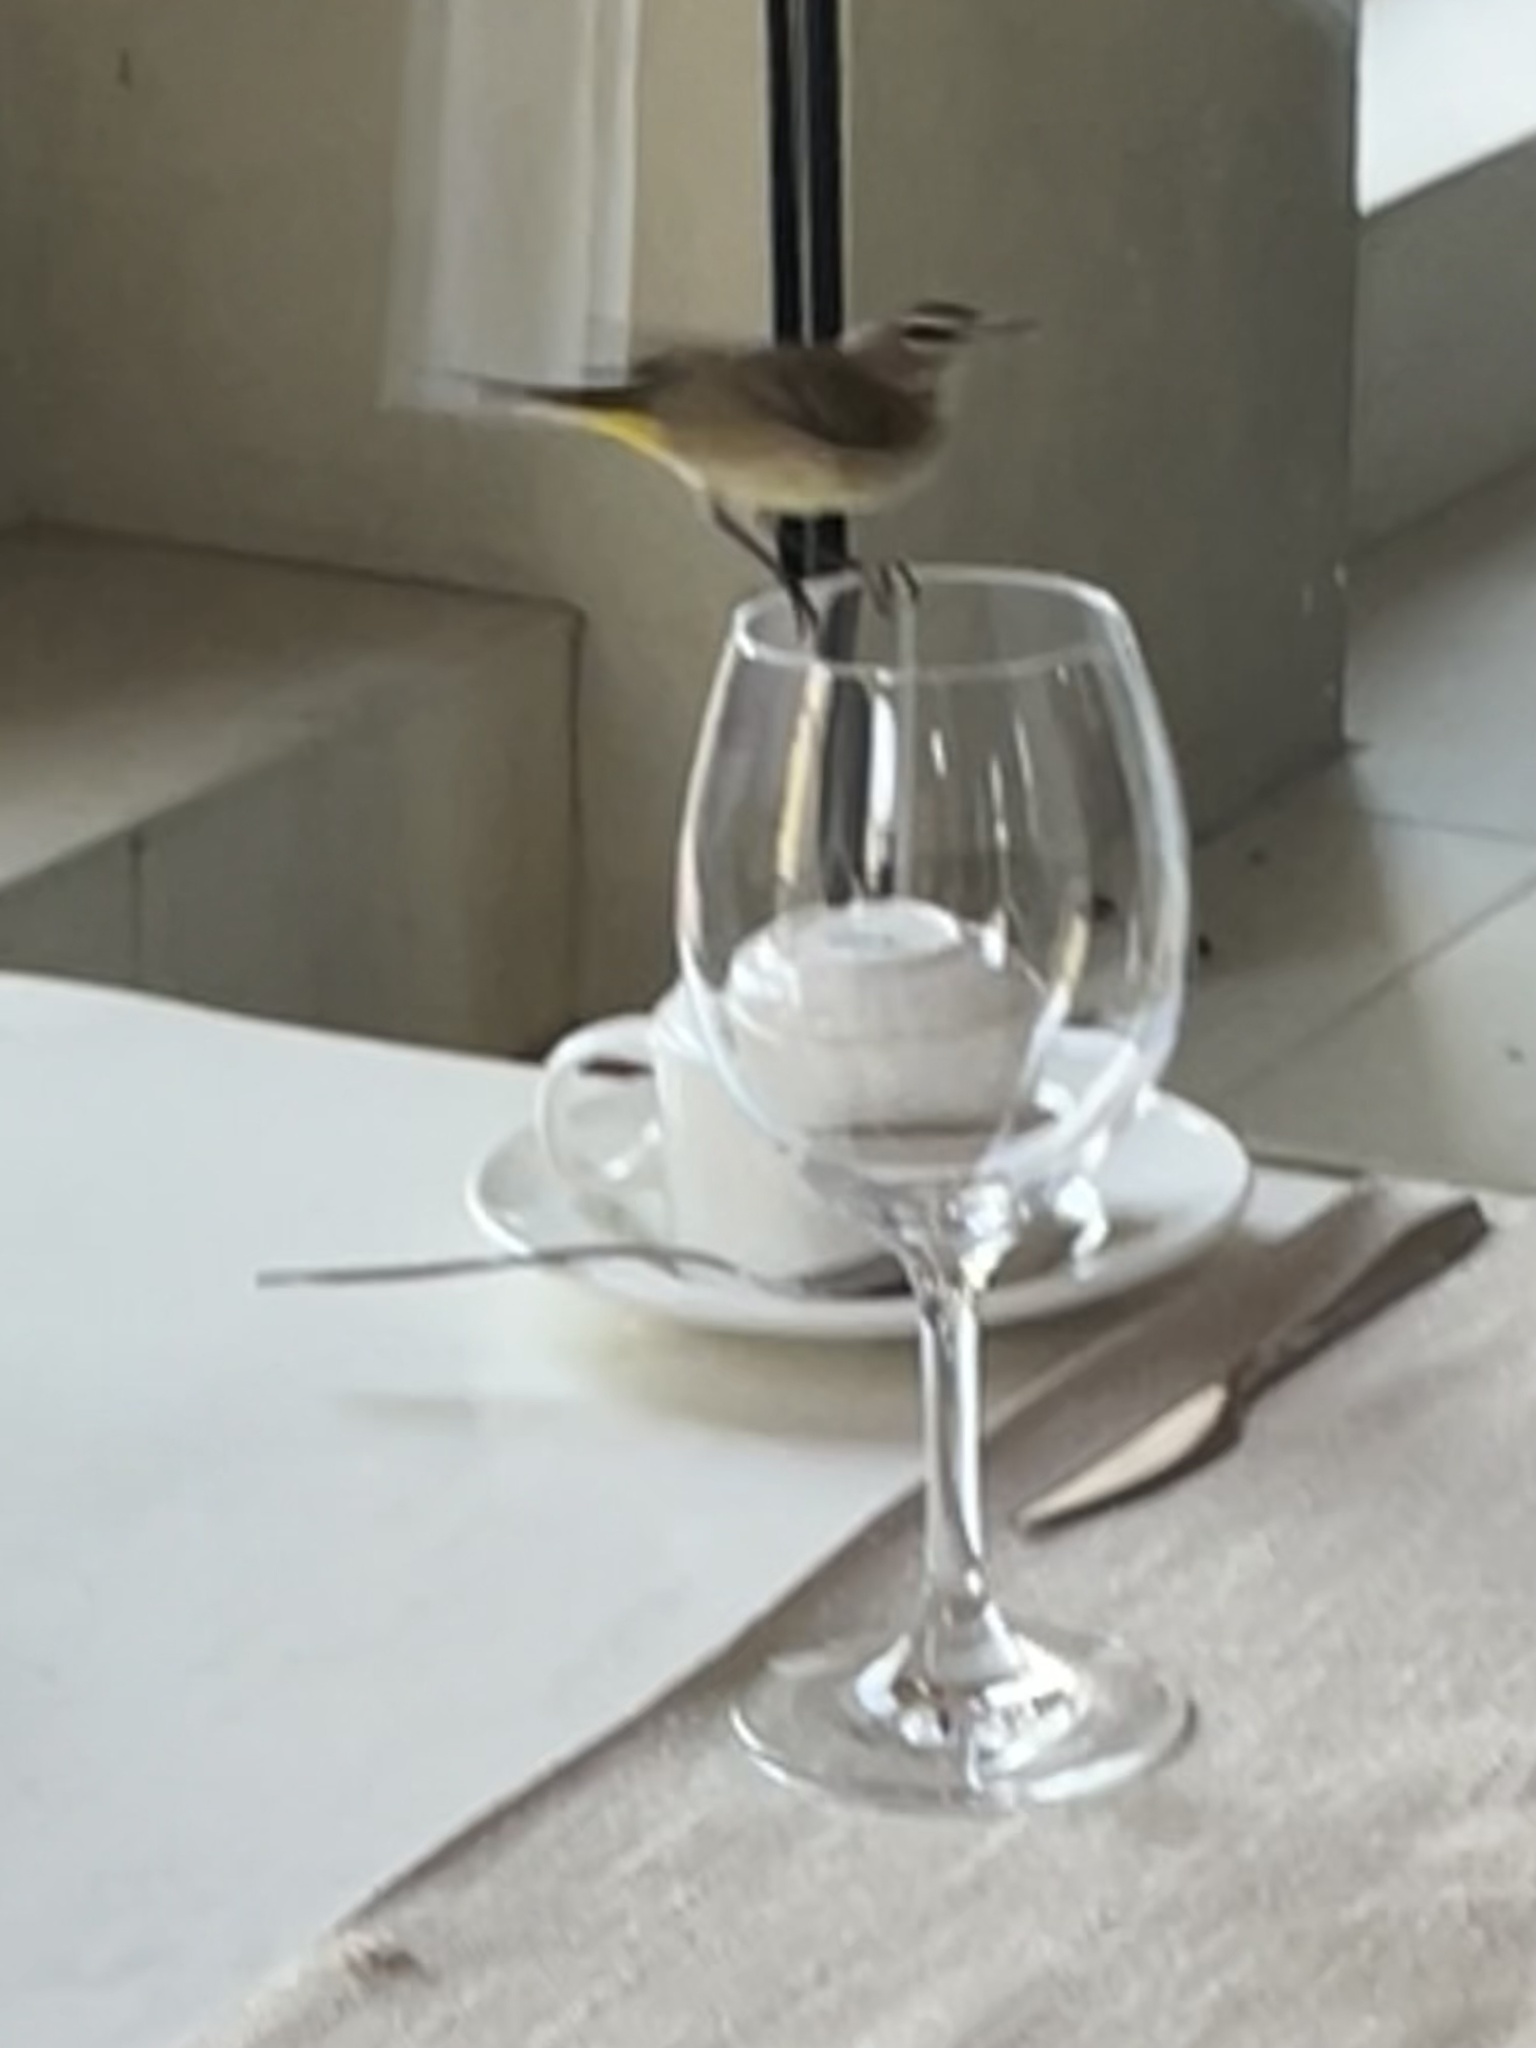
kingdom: Animalia
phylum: Chordata
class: Aves
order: Passeriformes
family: Parulidae
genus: Setophaga
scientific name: Setophaga palmarum
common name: Palm warbler
